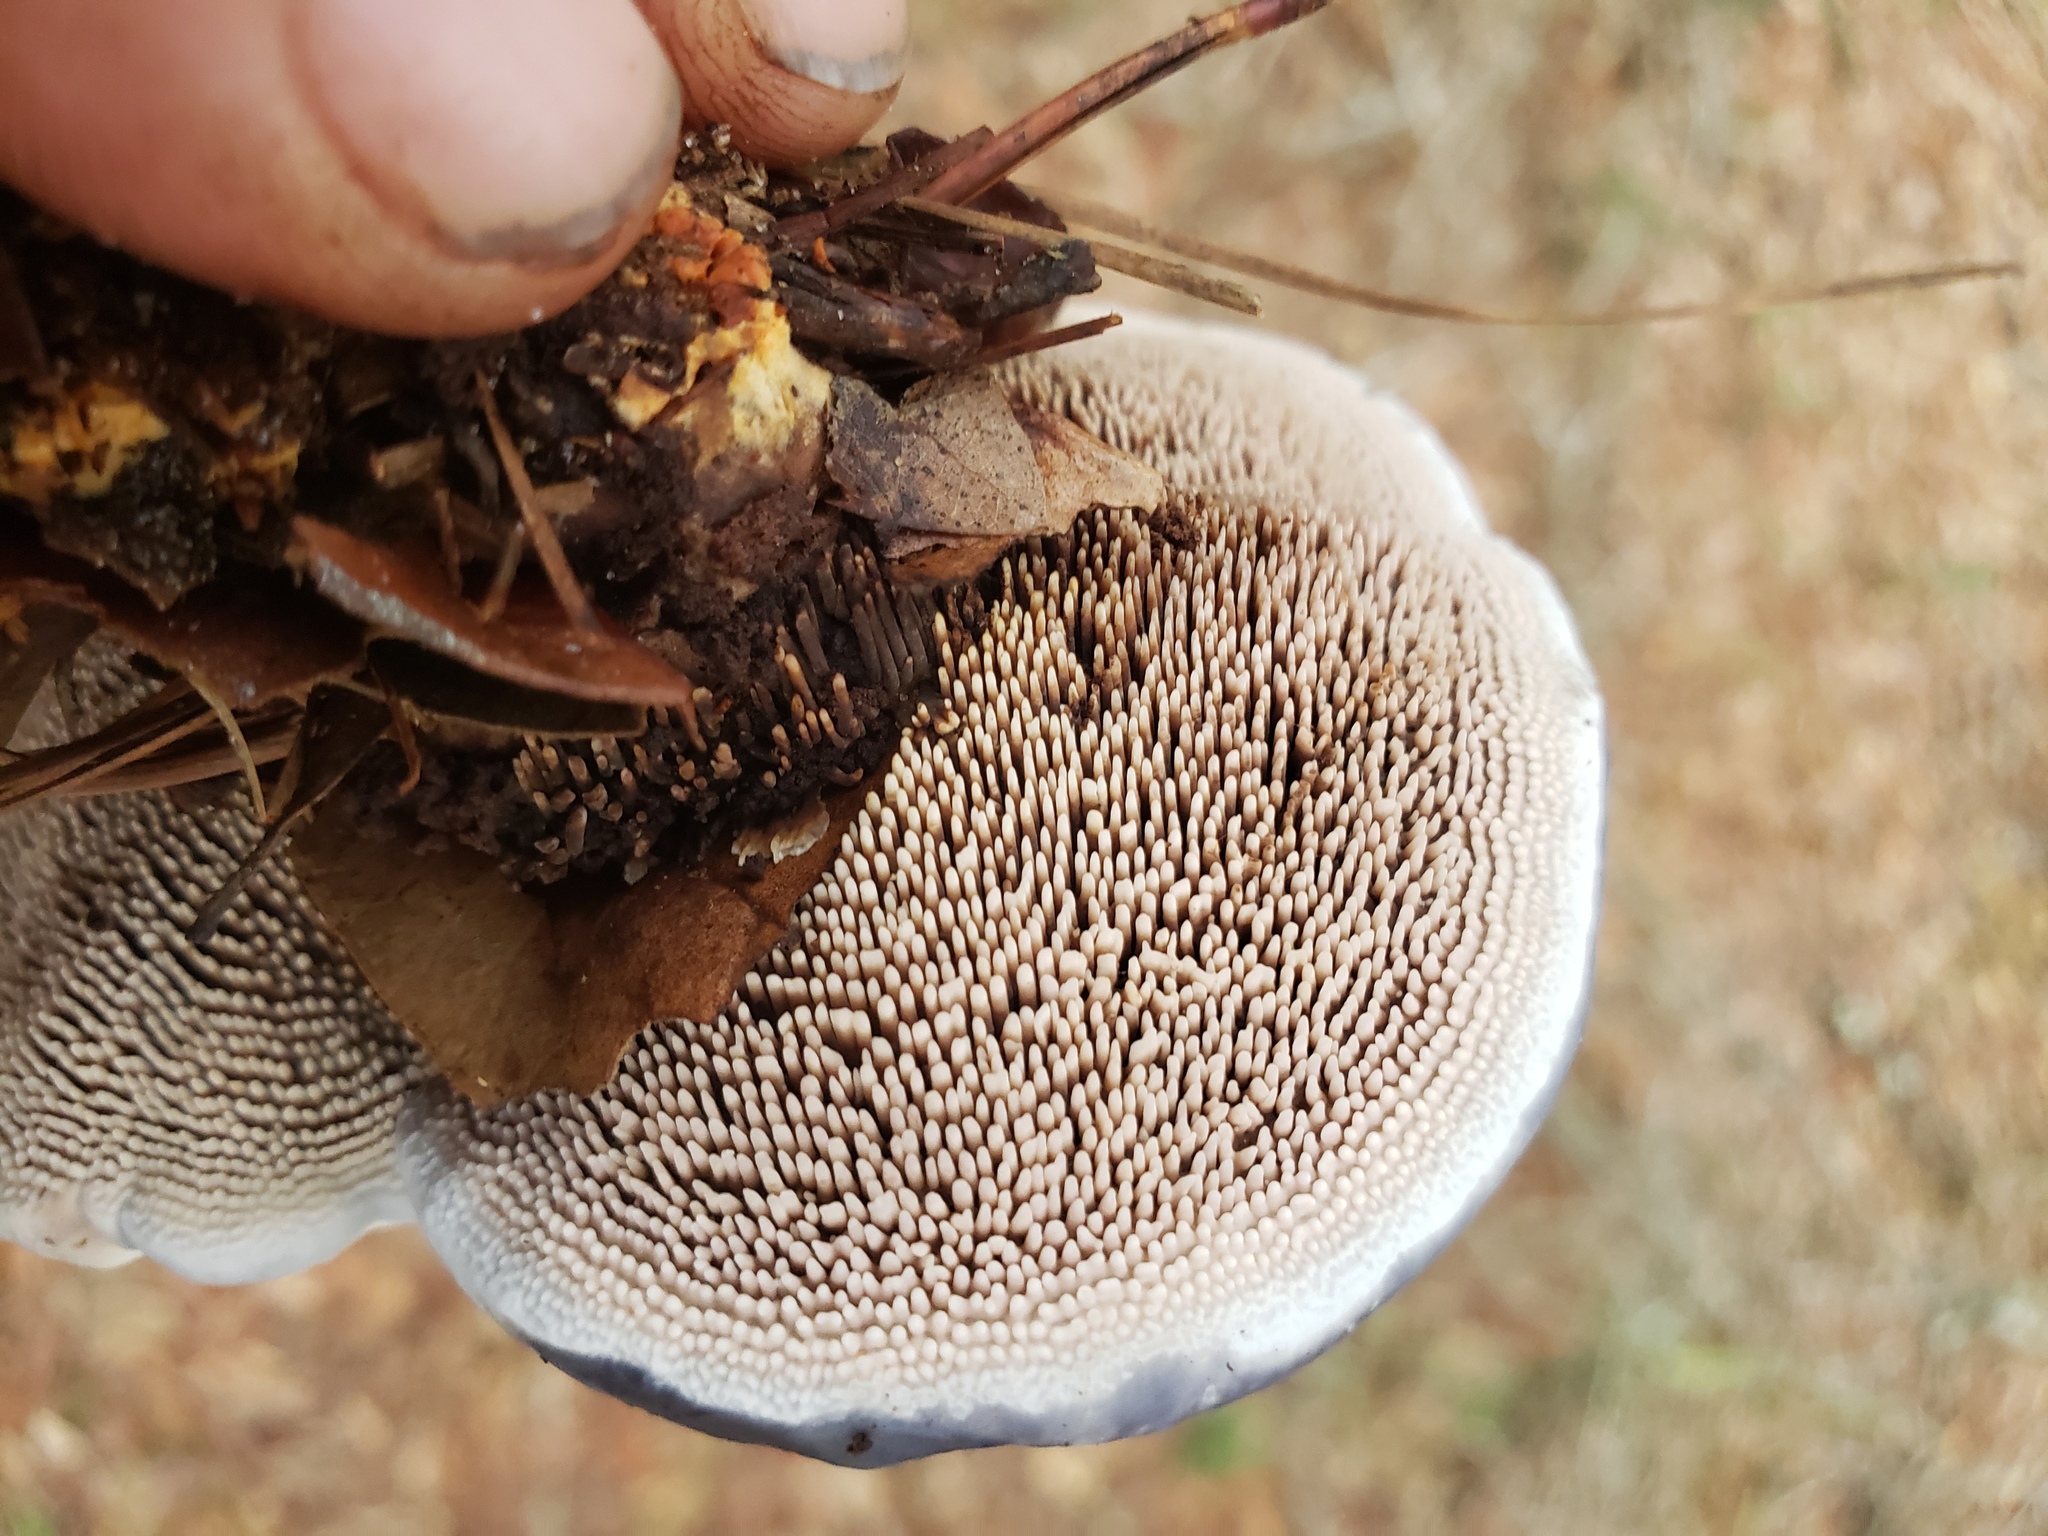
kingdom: Fungi
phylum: Basidiomycota
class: Agaricomycetes
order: Thelephorales
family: Bankeraceae
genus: Hydnellum
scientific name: Hydnellum caeruleum
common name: Blue corky spine fungus
